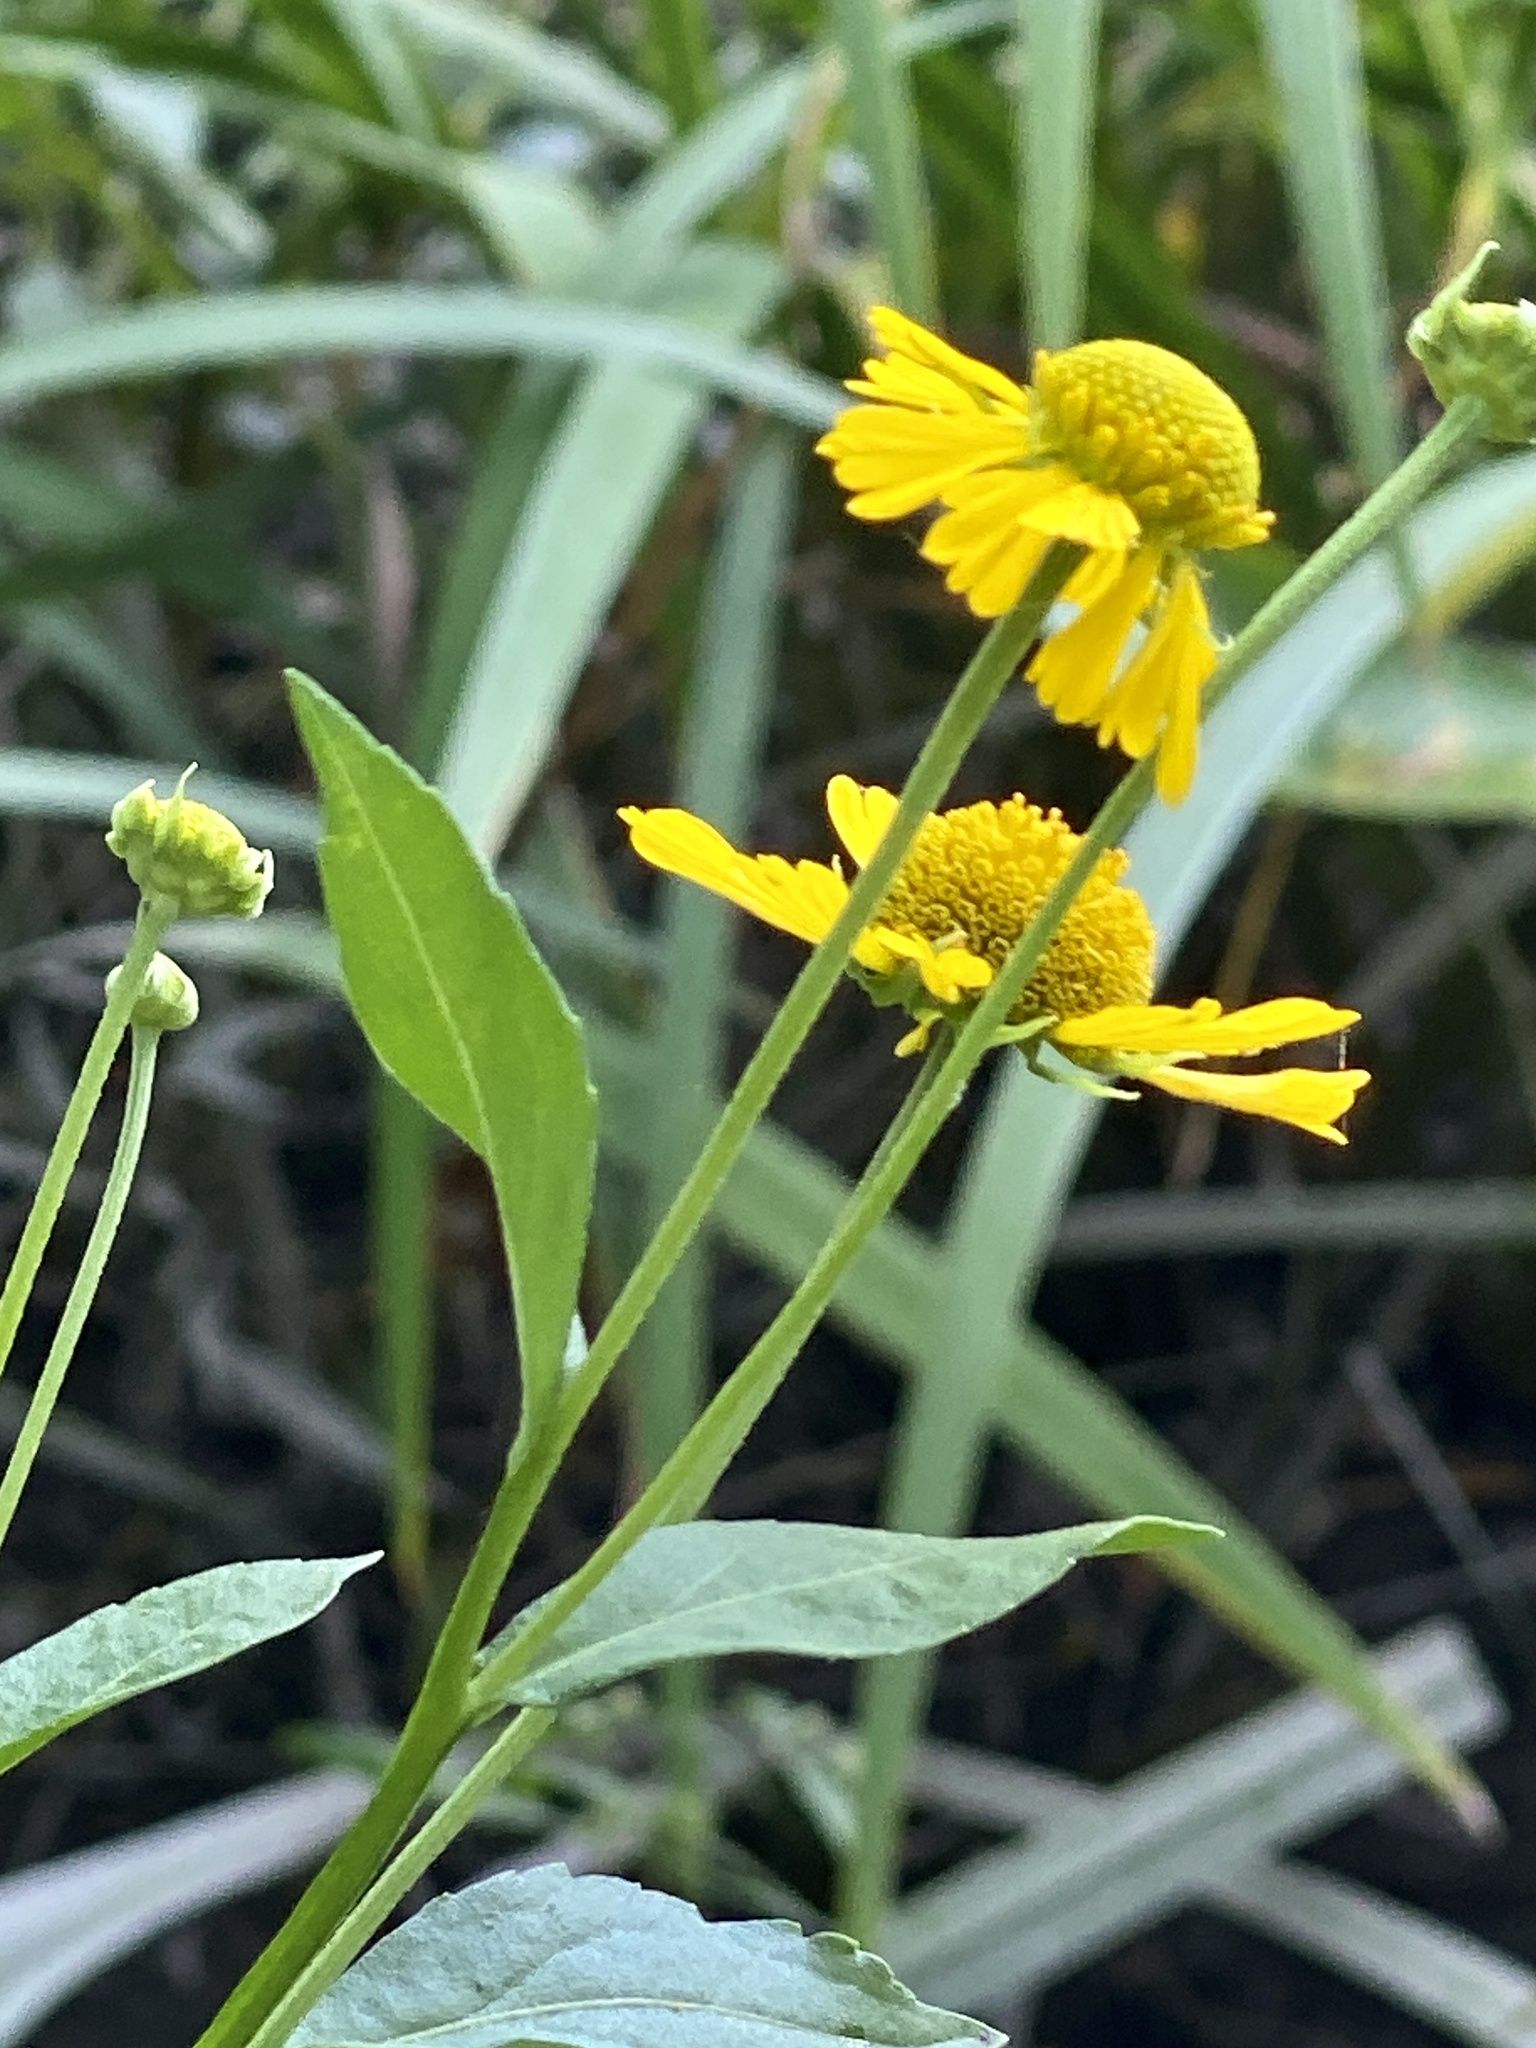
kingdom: Plantae
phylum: Tracheophyta
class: Magnoliopsida
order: Asterales
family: Asteraceae
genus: Helenium
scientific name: Helenium autumnale
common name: Sneezeweed
